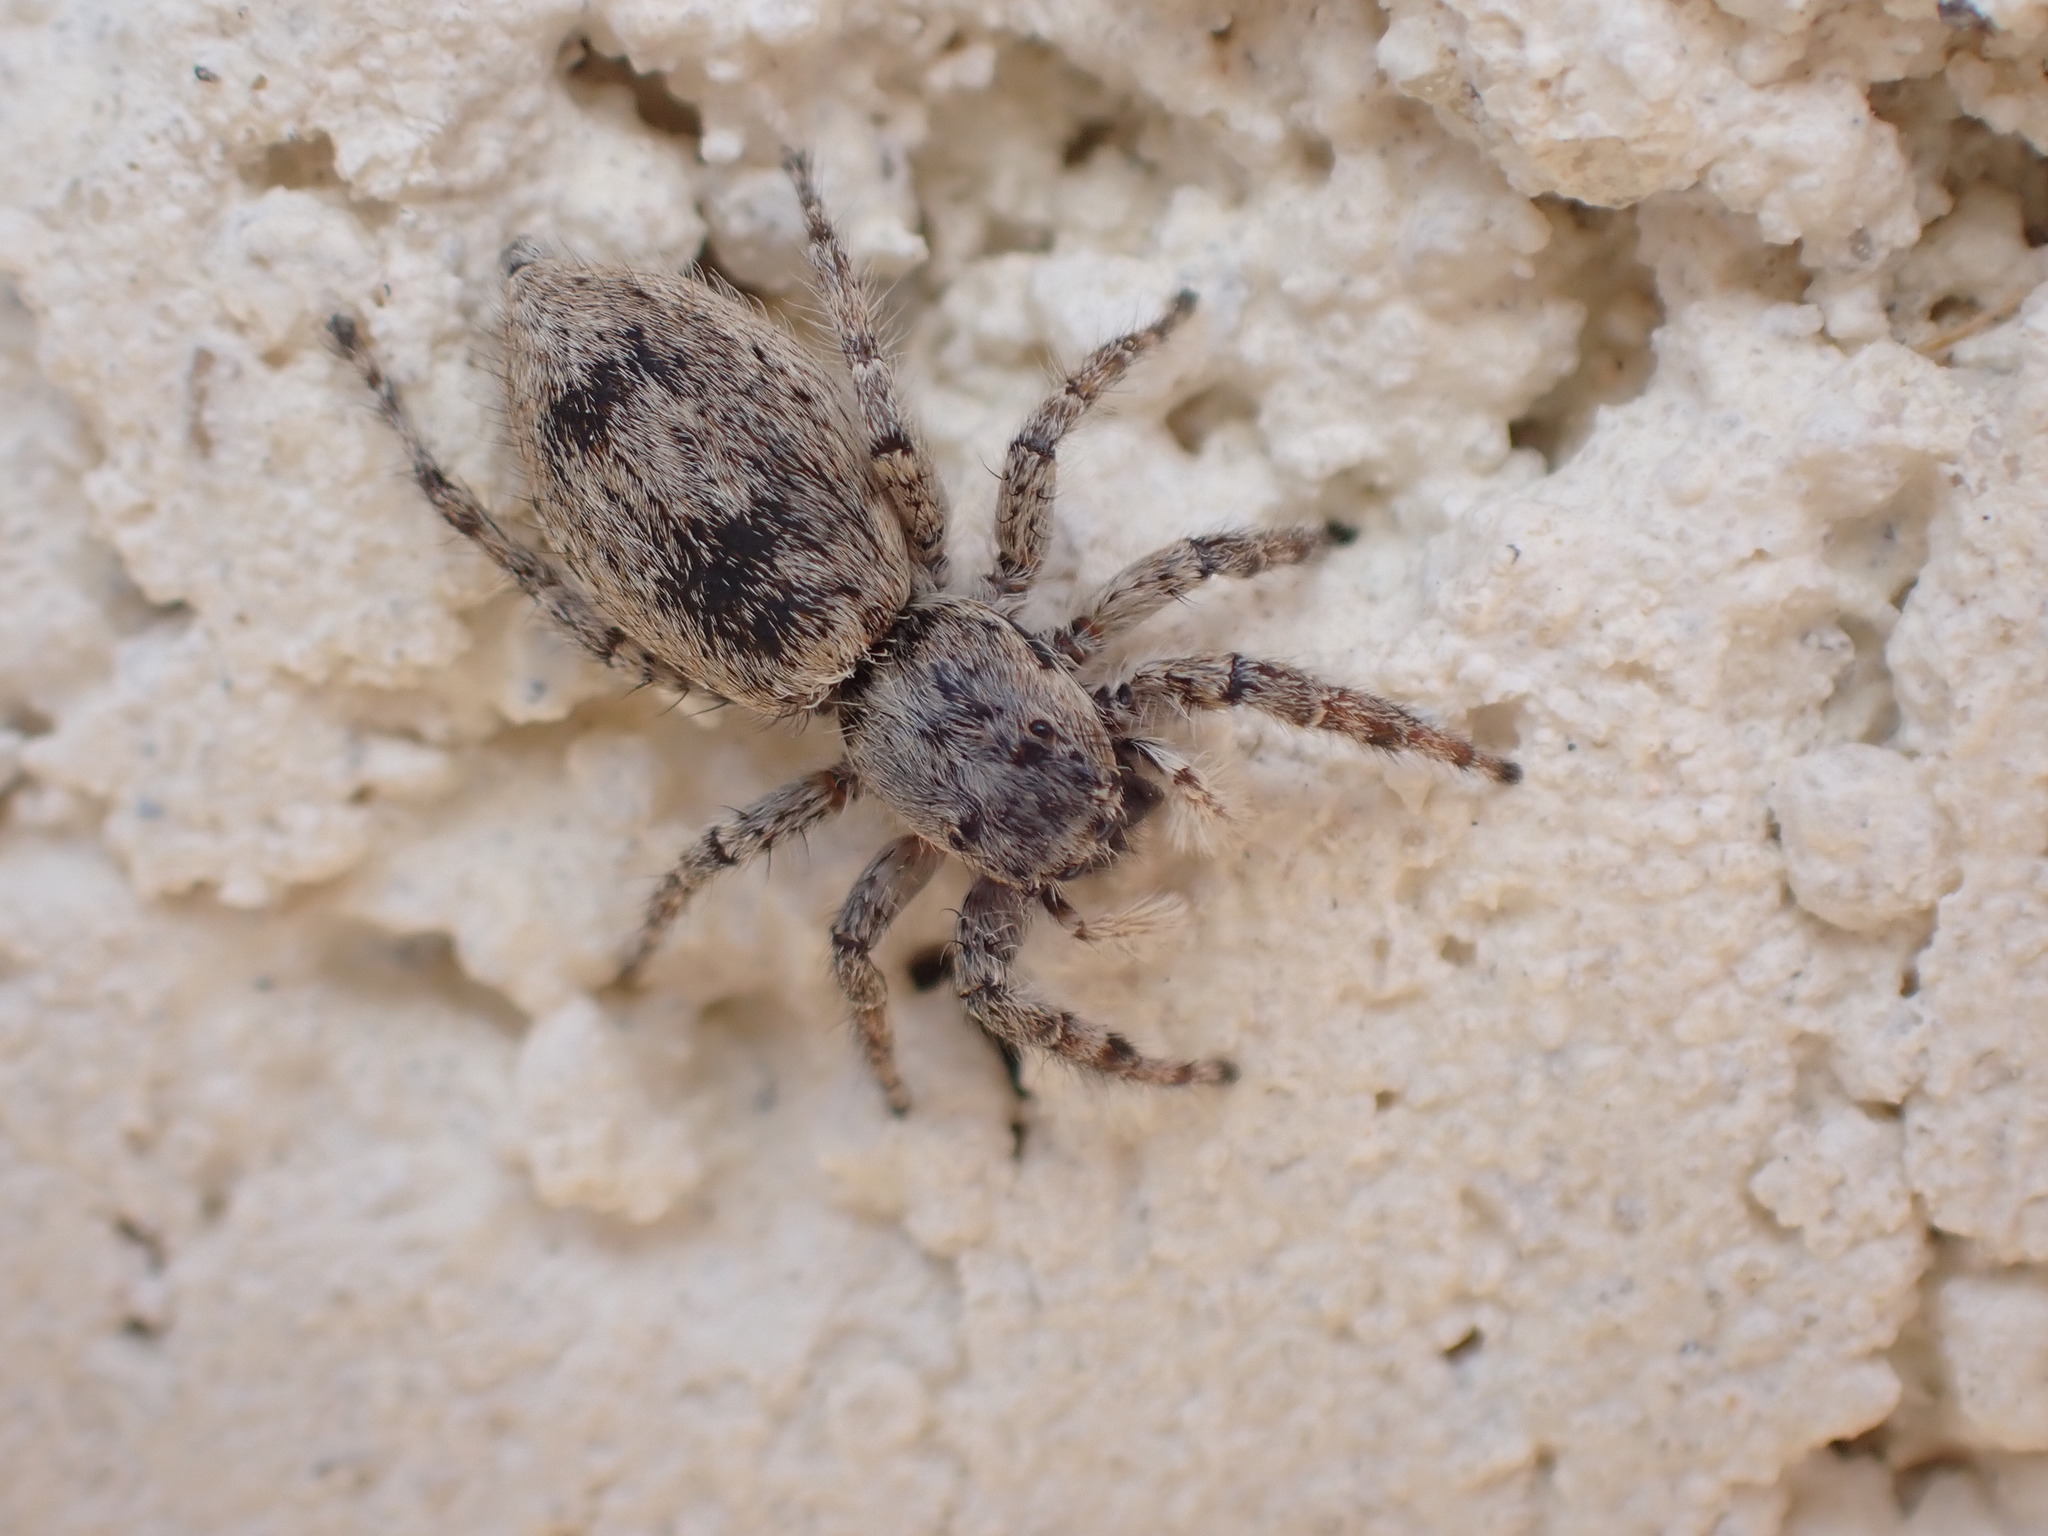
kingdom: Animalia
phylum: Arthropoda
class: Arachnida
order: Araneae
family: Salticidae
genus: Menemerus
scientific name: Menemerus taeniatus
